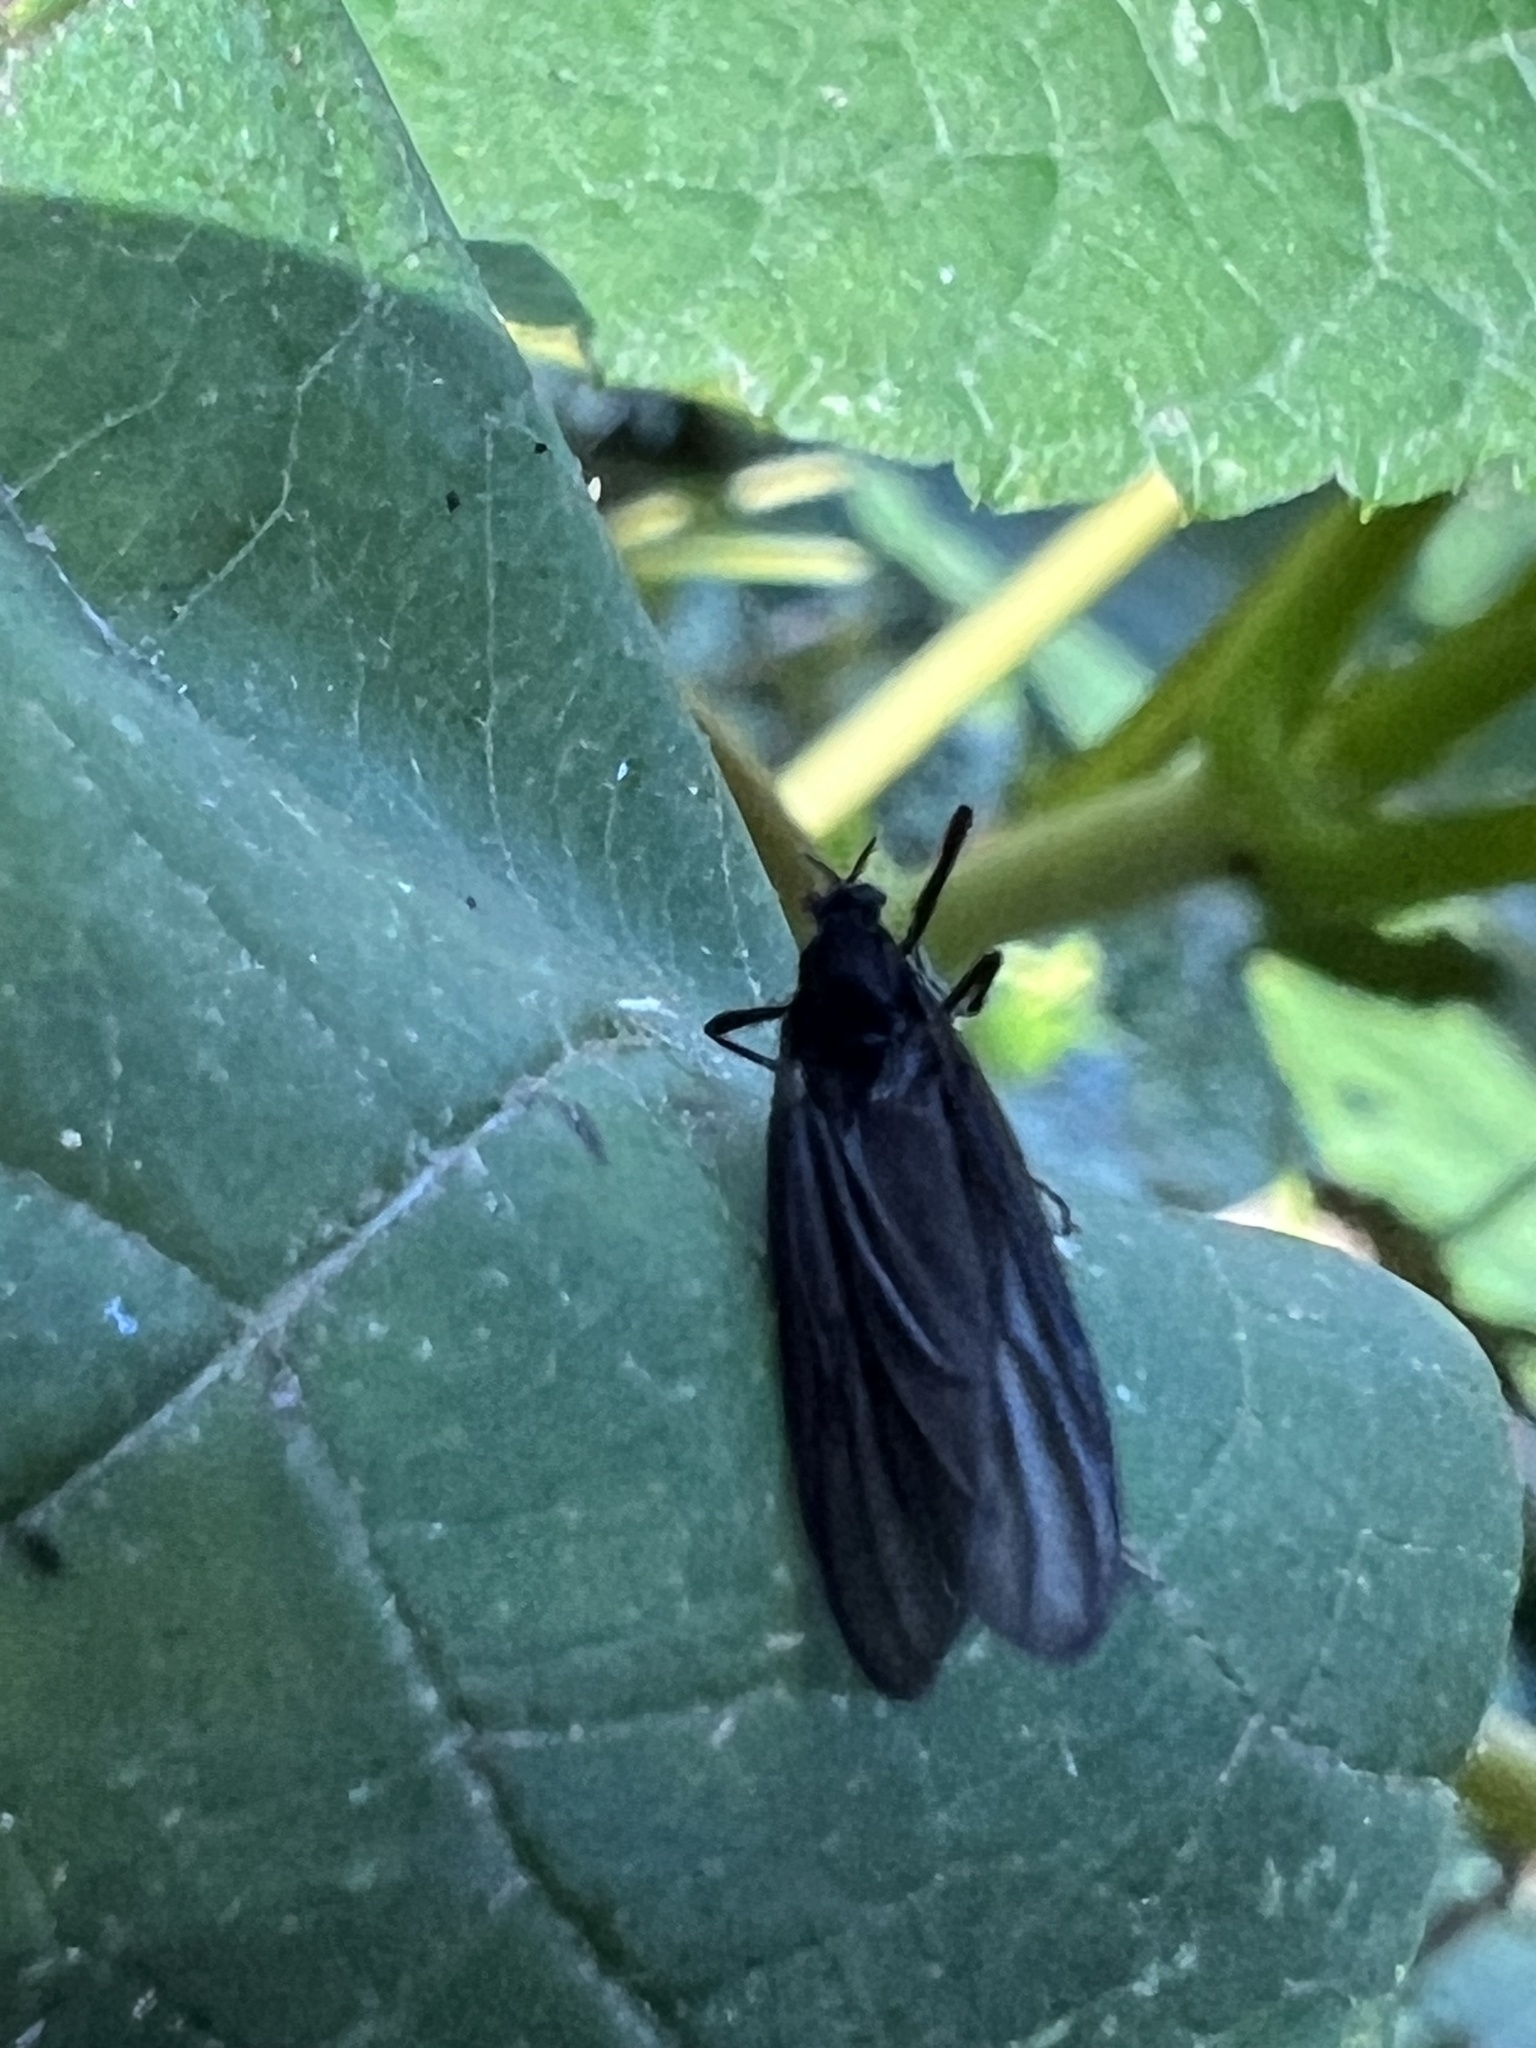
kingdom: Animalia
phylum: Arthropoda
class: Insecta
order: Diptera
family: Bibionidae
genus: Penthetria
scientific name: Penthetria heteroptera
